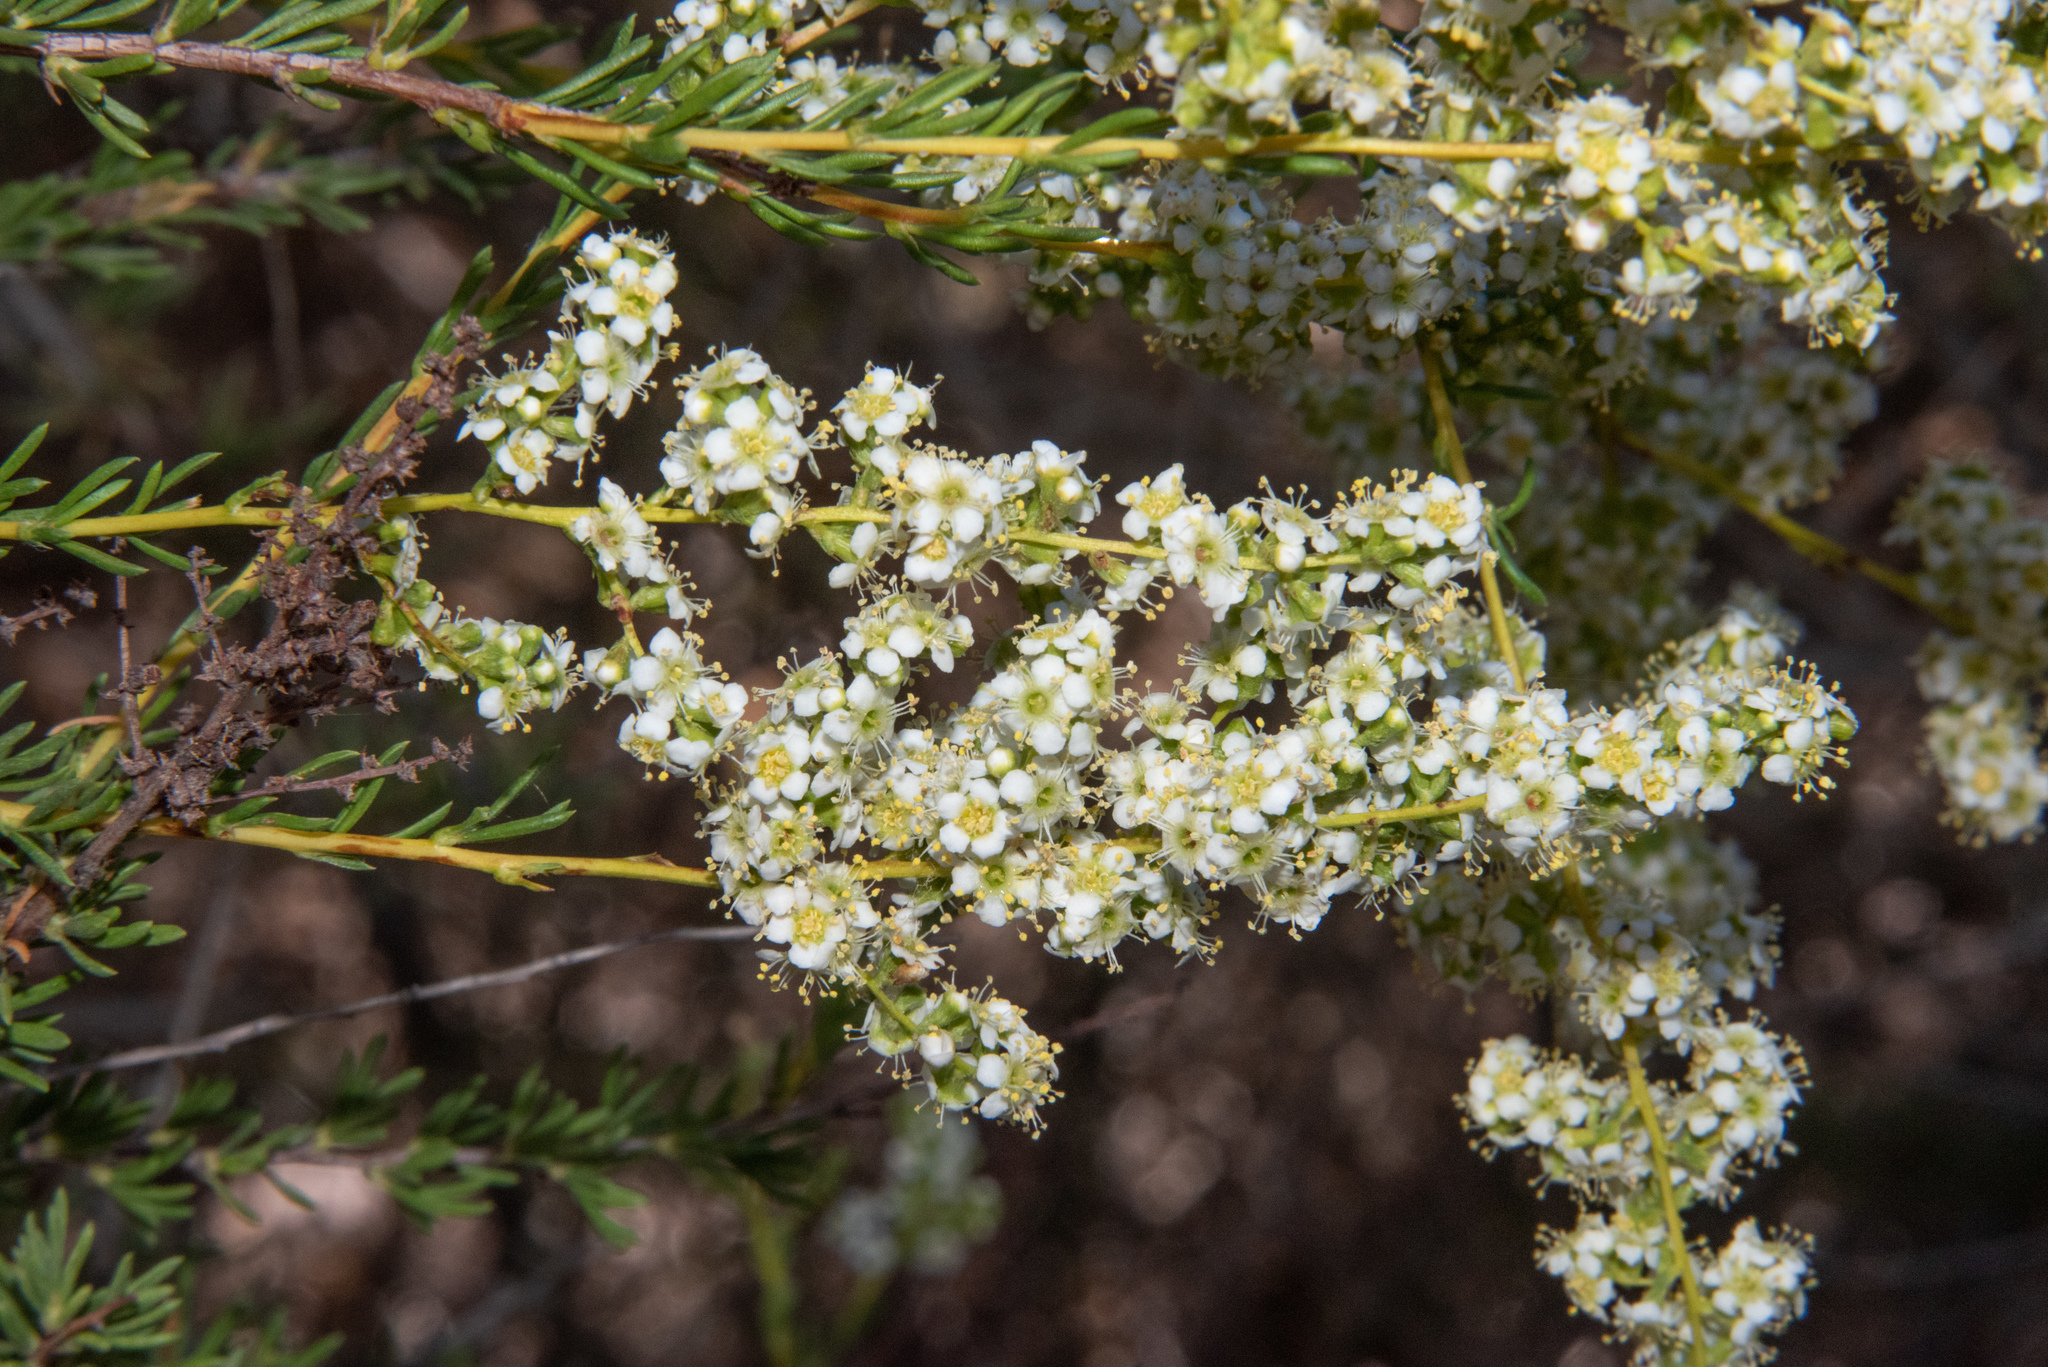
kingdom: Plantae
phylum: Tracheophyta
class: Magnoliopsida
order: Rosales
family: Rosaceae
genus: Adenostoma
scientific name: Adenostoma fasciculatum
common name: Chamise
